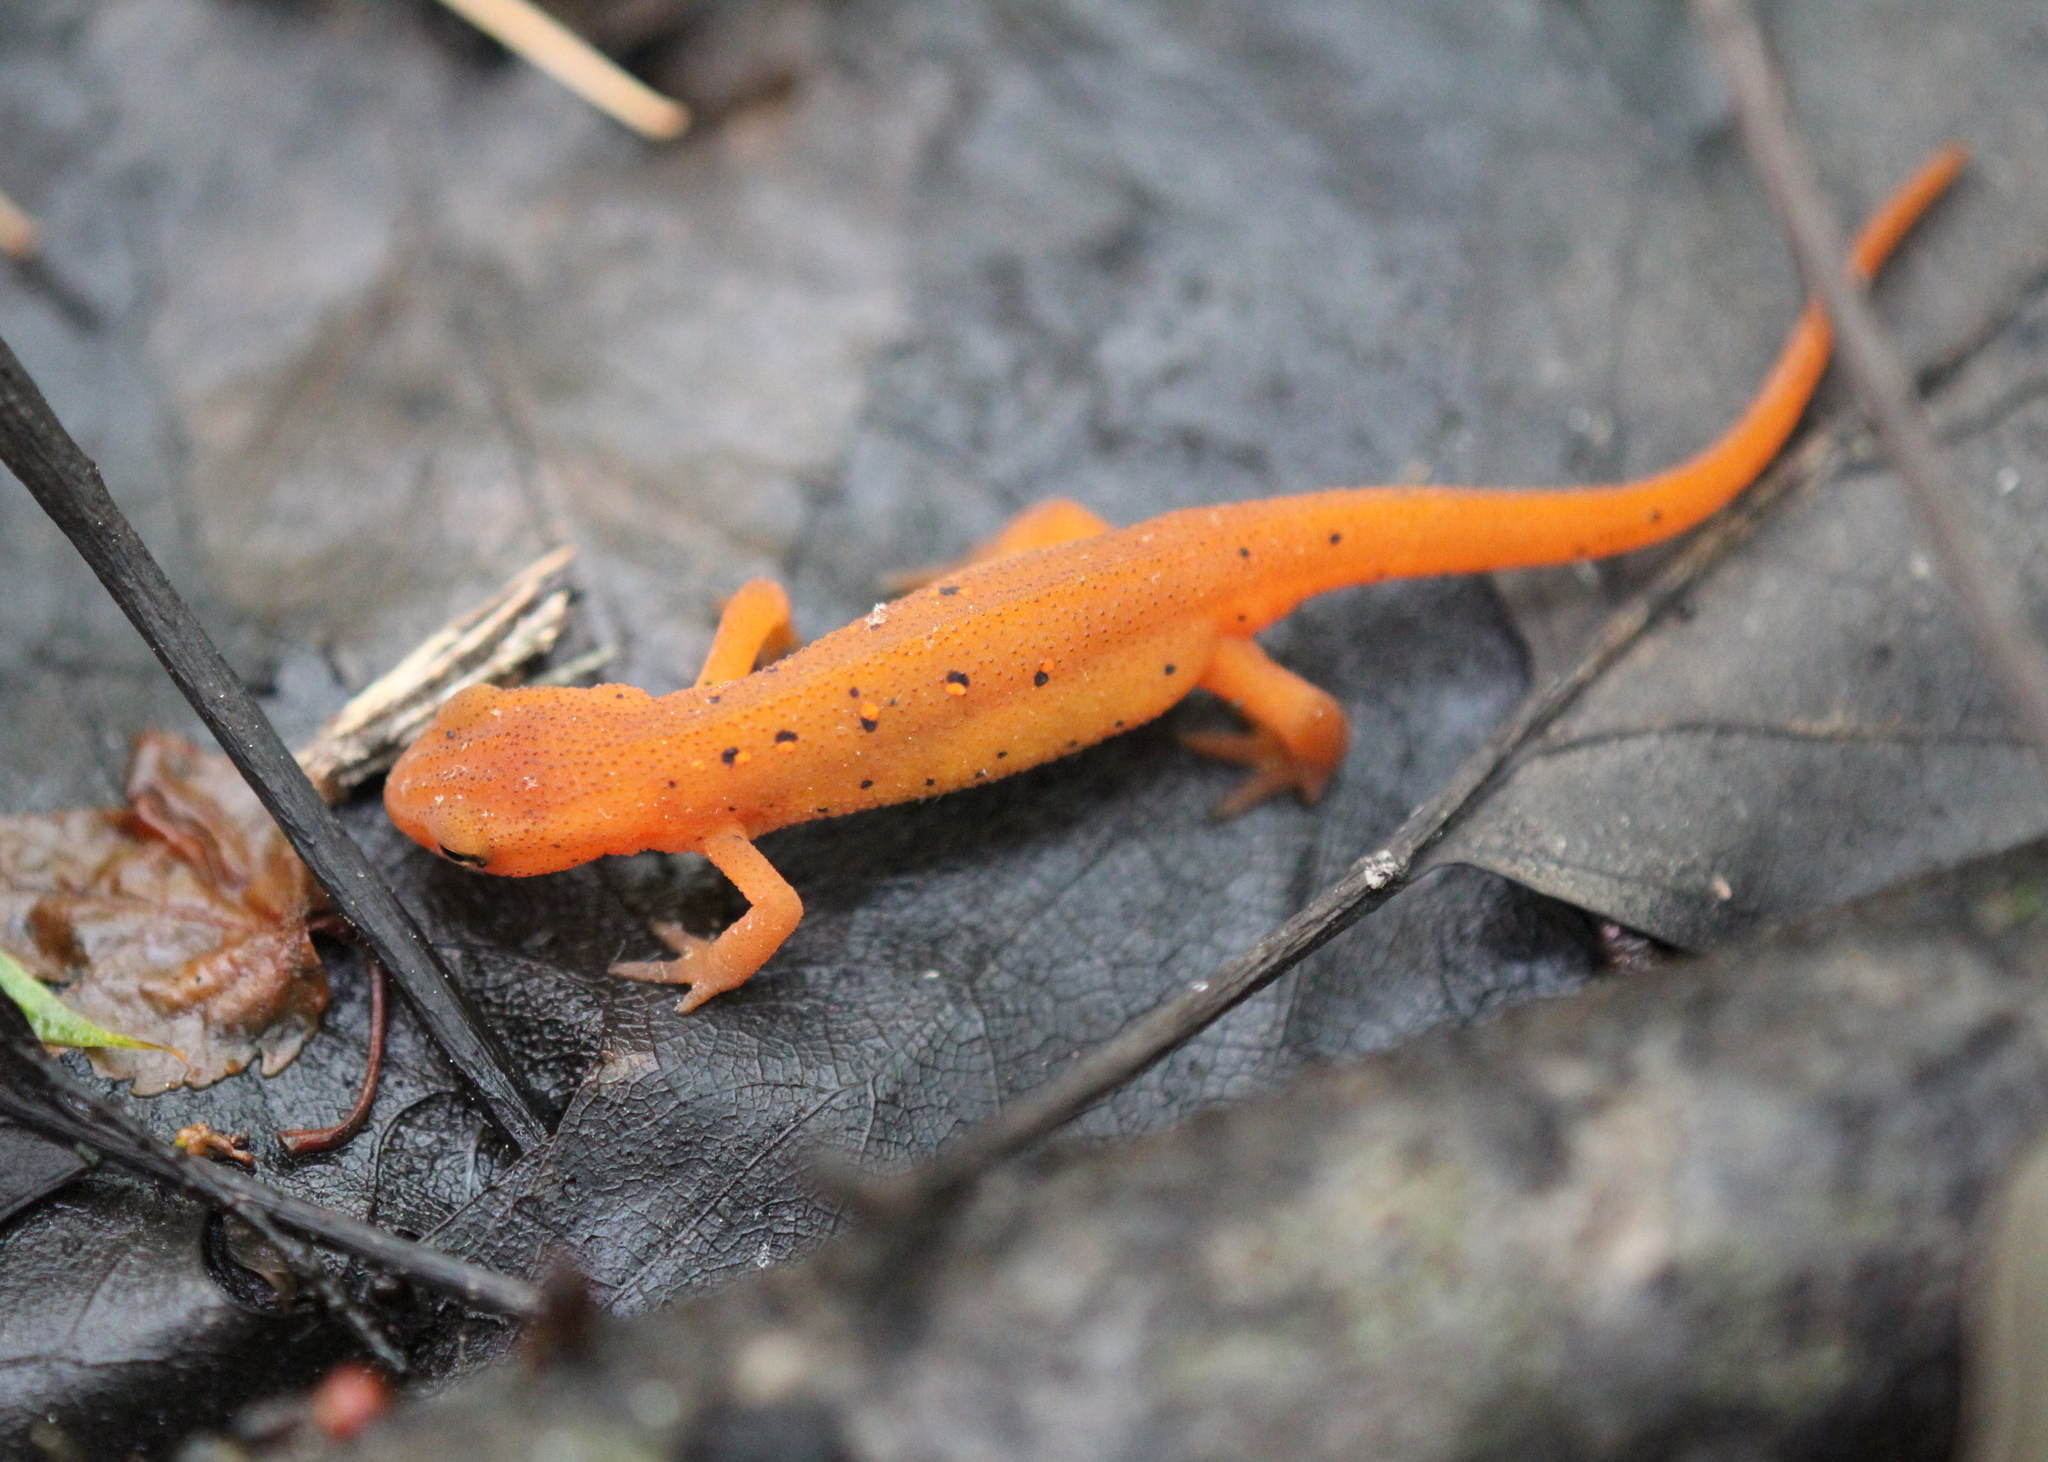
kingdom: Animalia
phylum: Chordata
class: Amphibia
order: Caudata
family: Salamandridae
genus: Notophthalmus
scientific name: Notophthalmus viridescens
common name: Eastern newt
